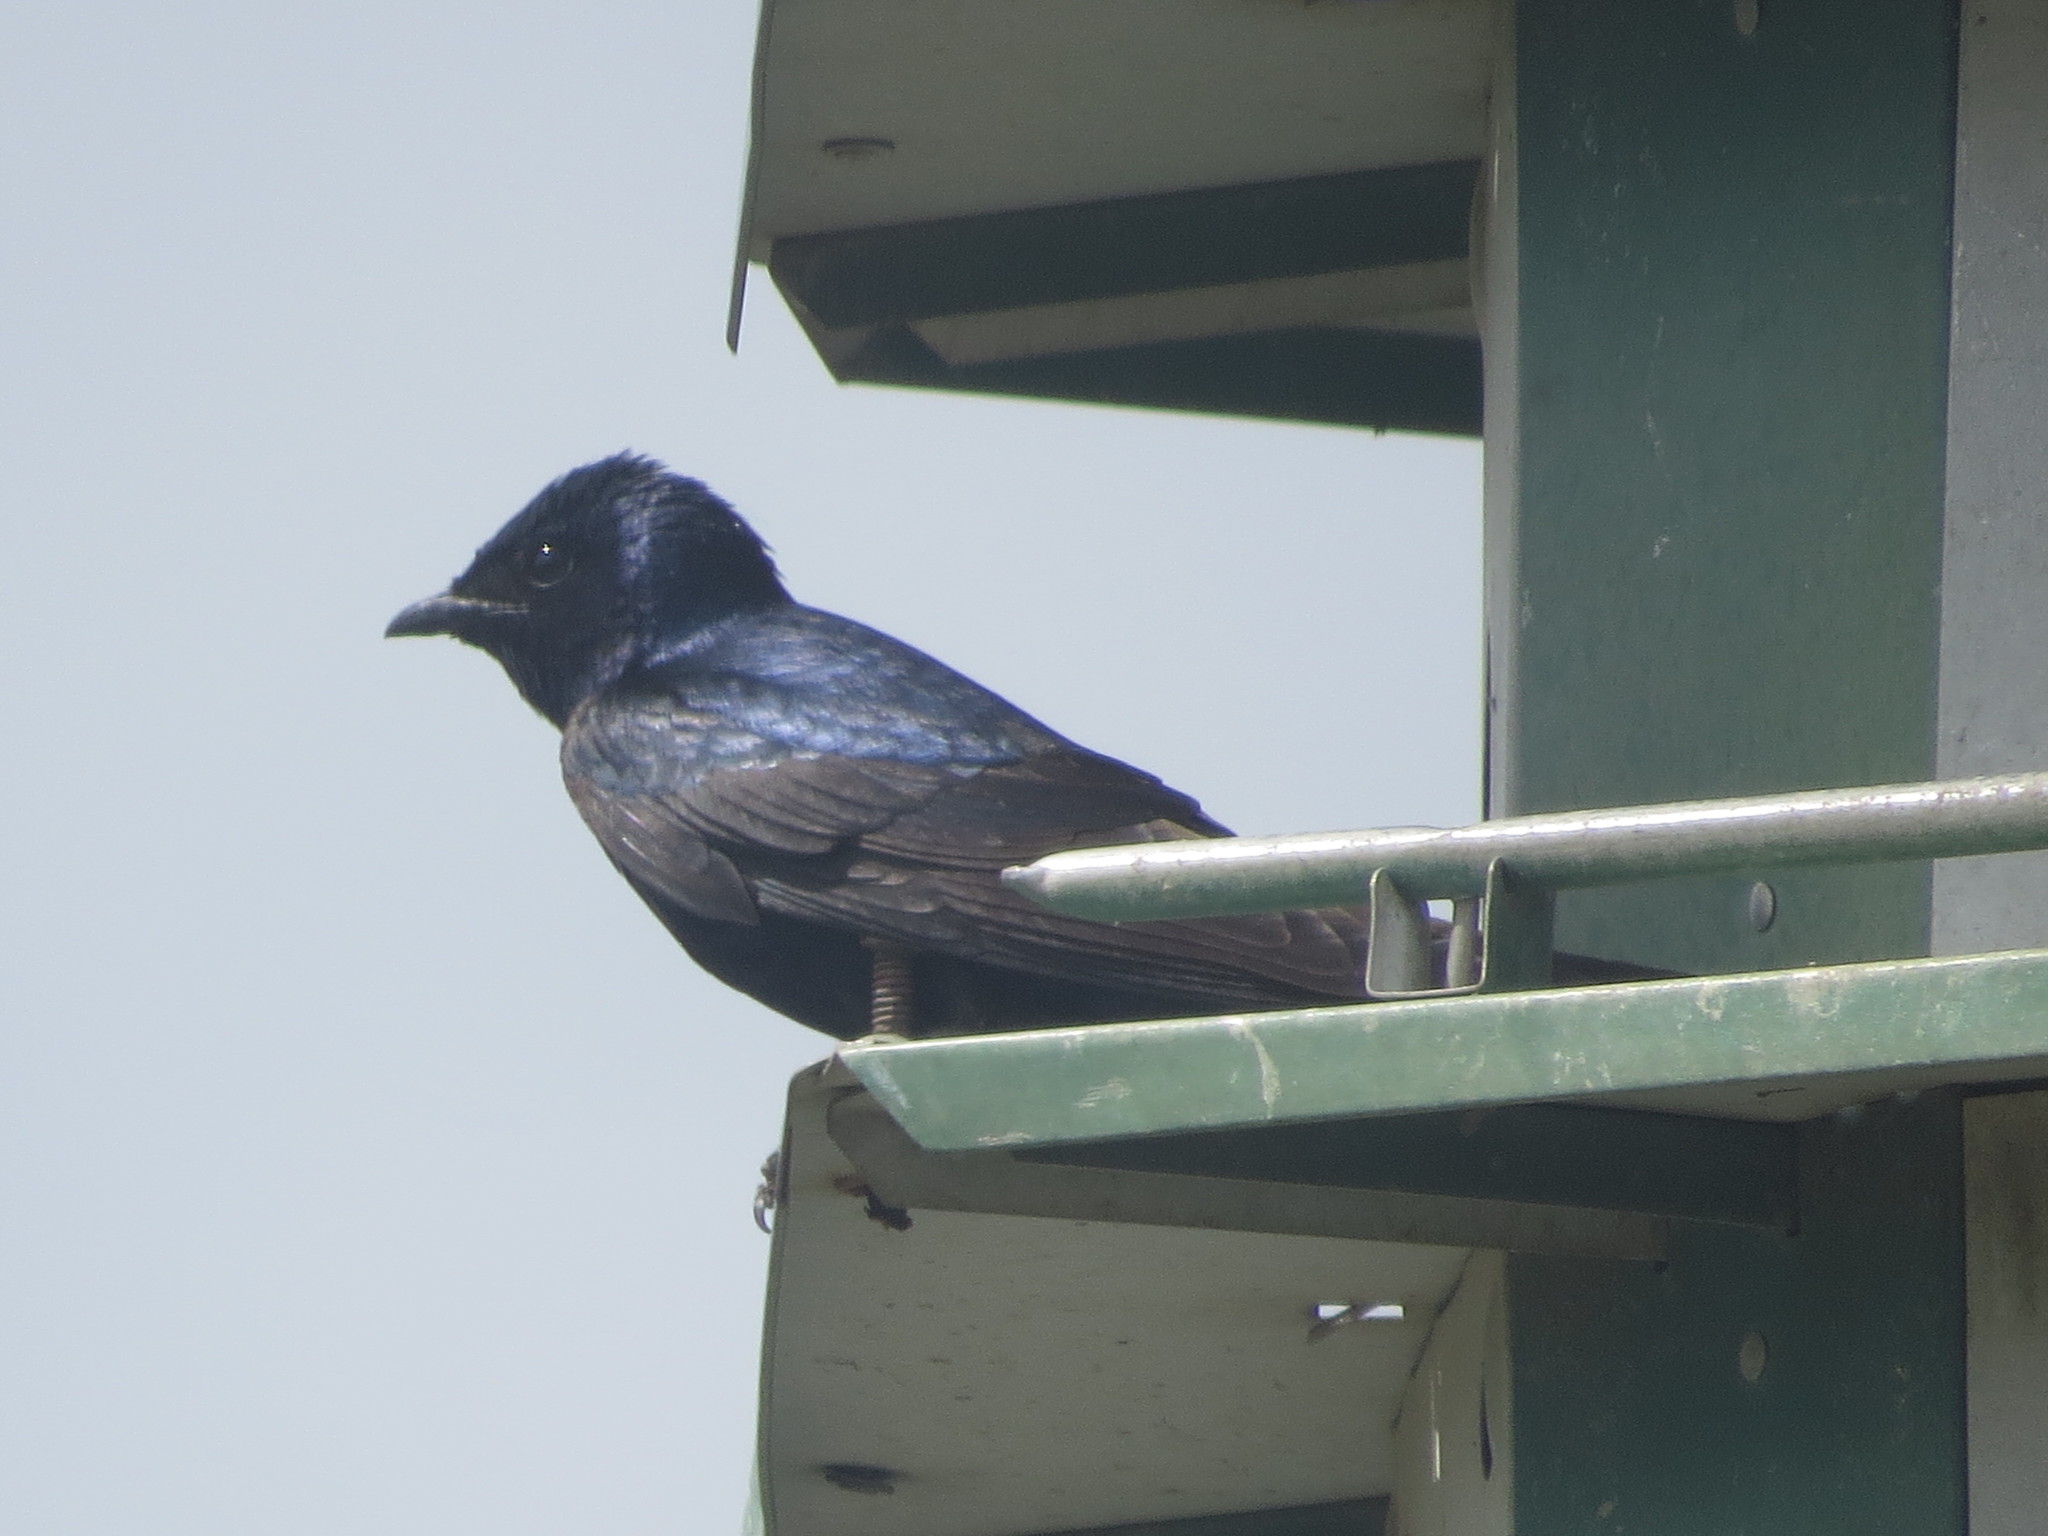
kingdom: Animalia
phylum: Chordata
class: Aves
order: Passeriformes
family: Hirundinidae
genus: Progne
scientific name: Progne subis
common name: Purple martin
